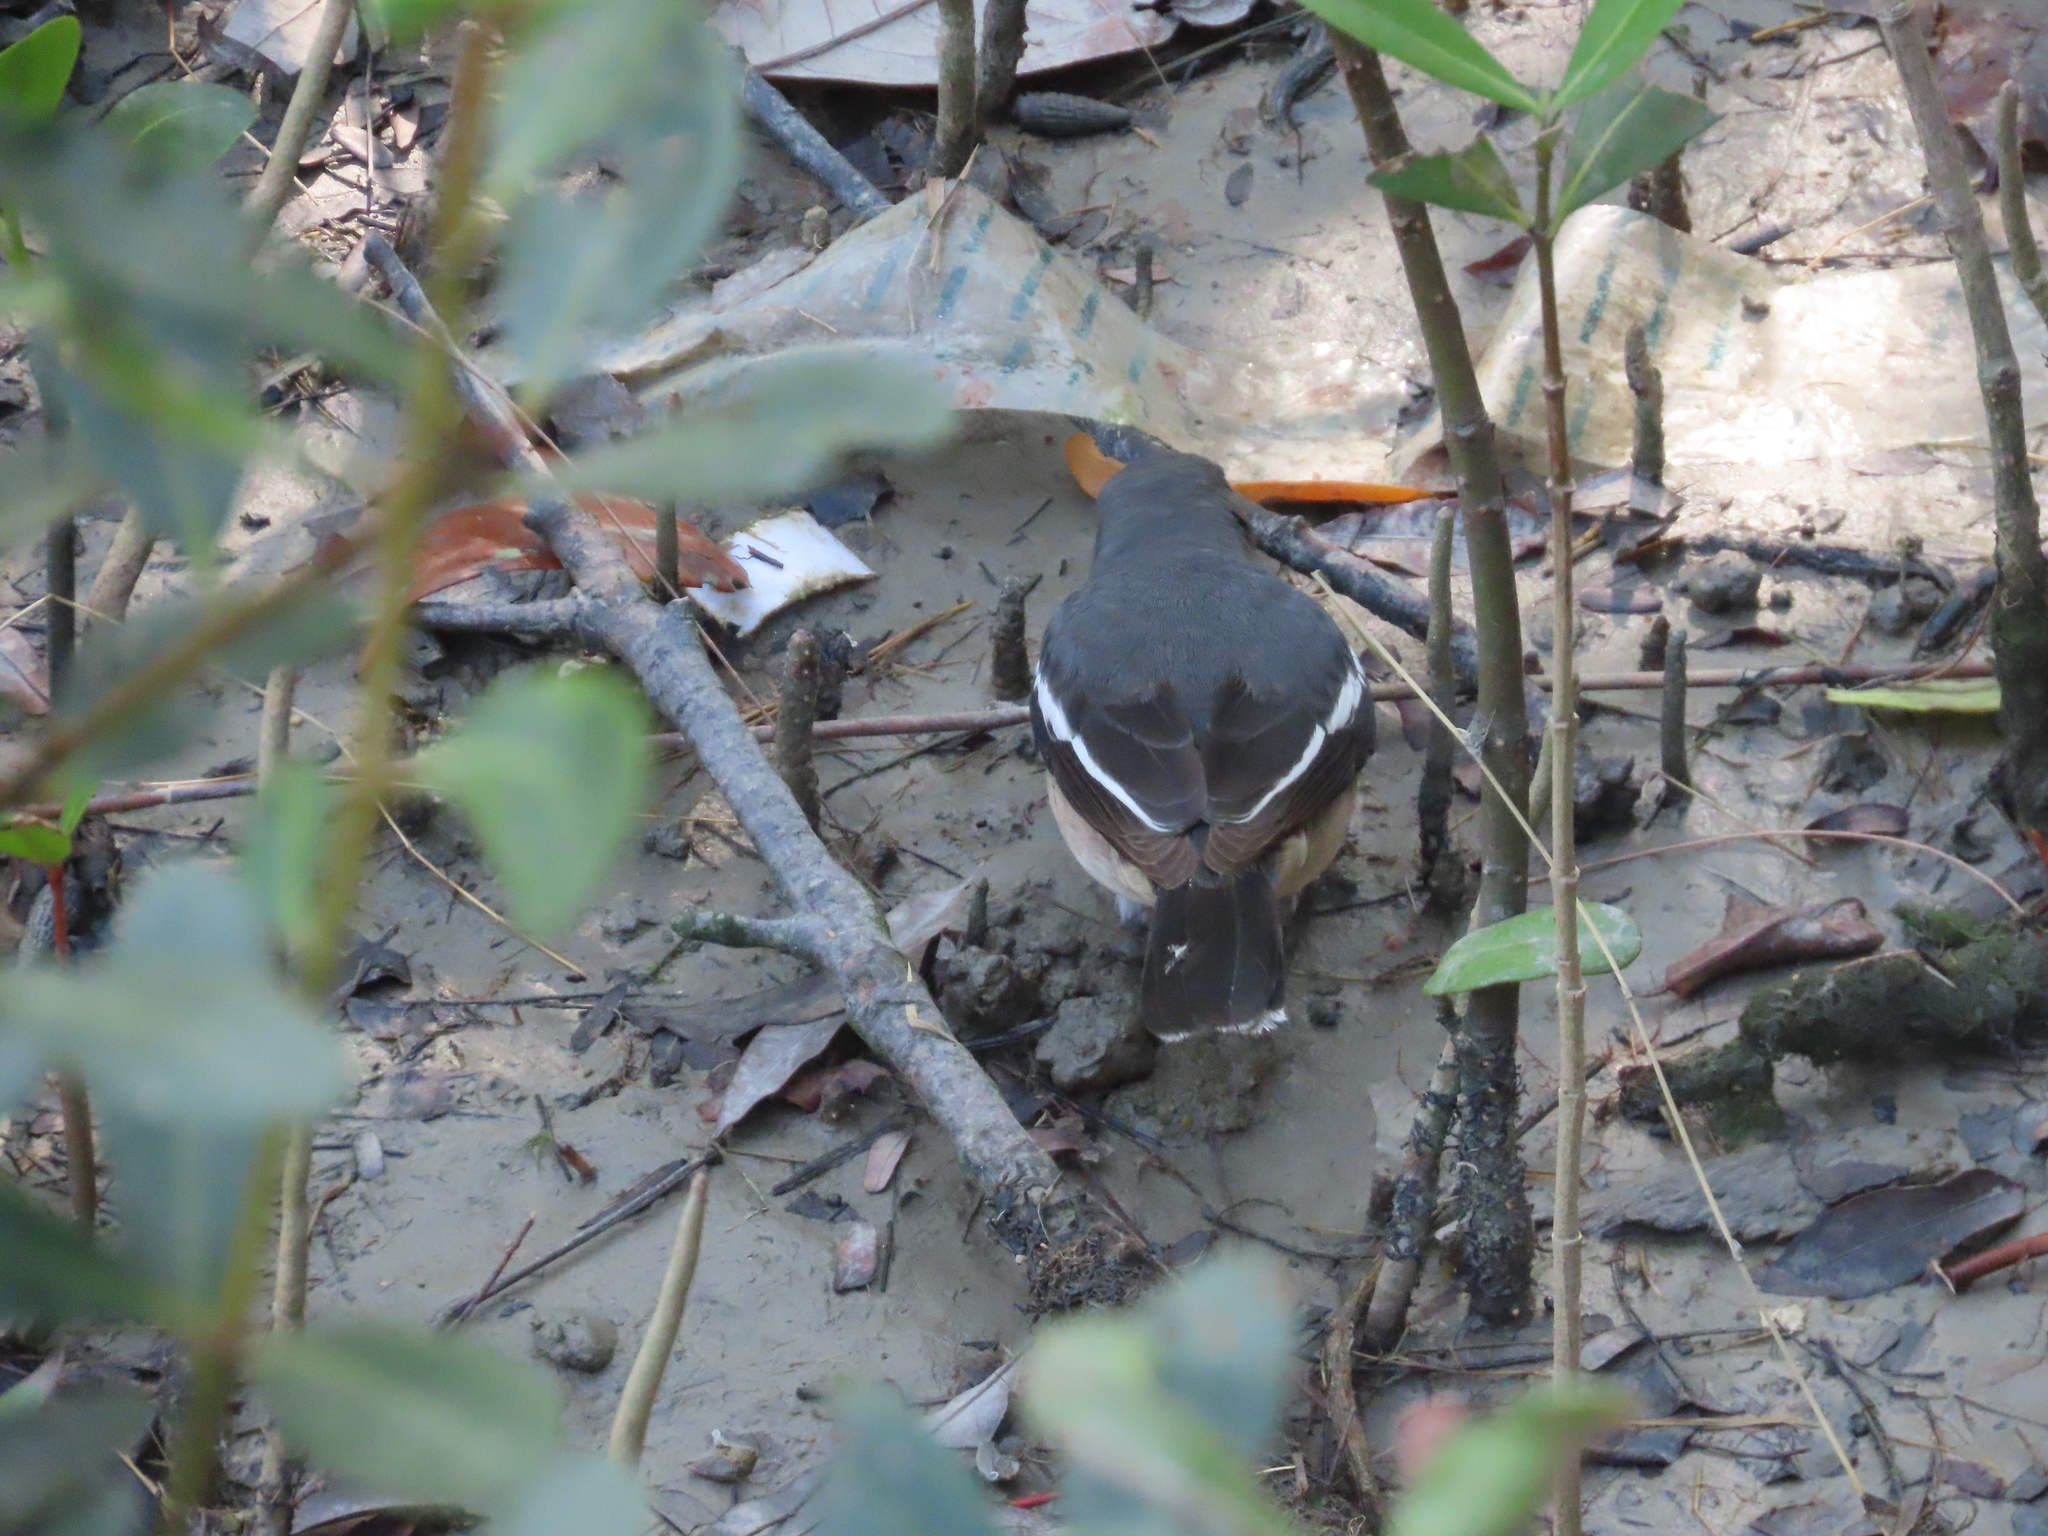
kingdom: Animalia
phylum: Chordata
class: Aves
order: Passeriformes
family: Muscicapidae
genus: Copsychus
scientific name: Copsychus saularis
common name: Oriental magpie-robin
